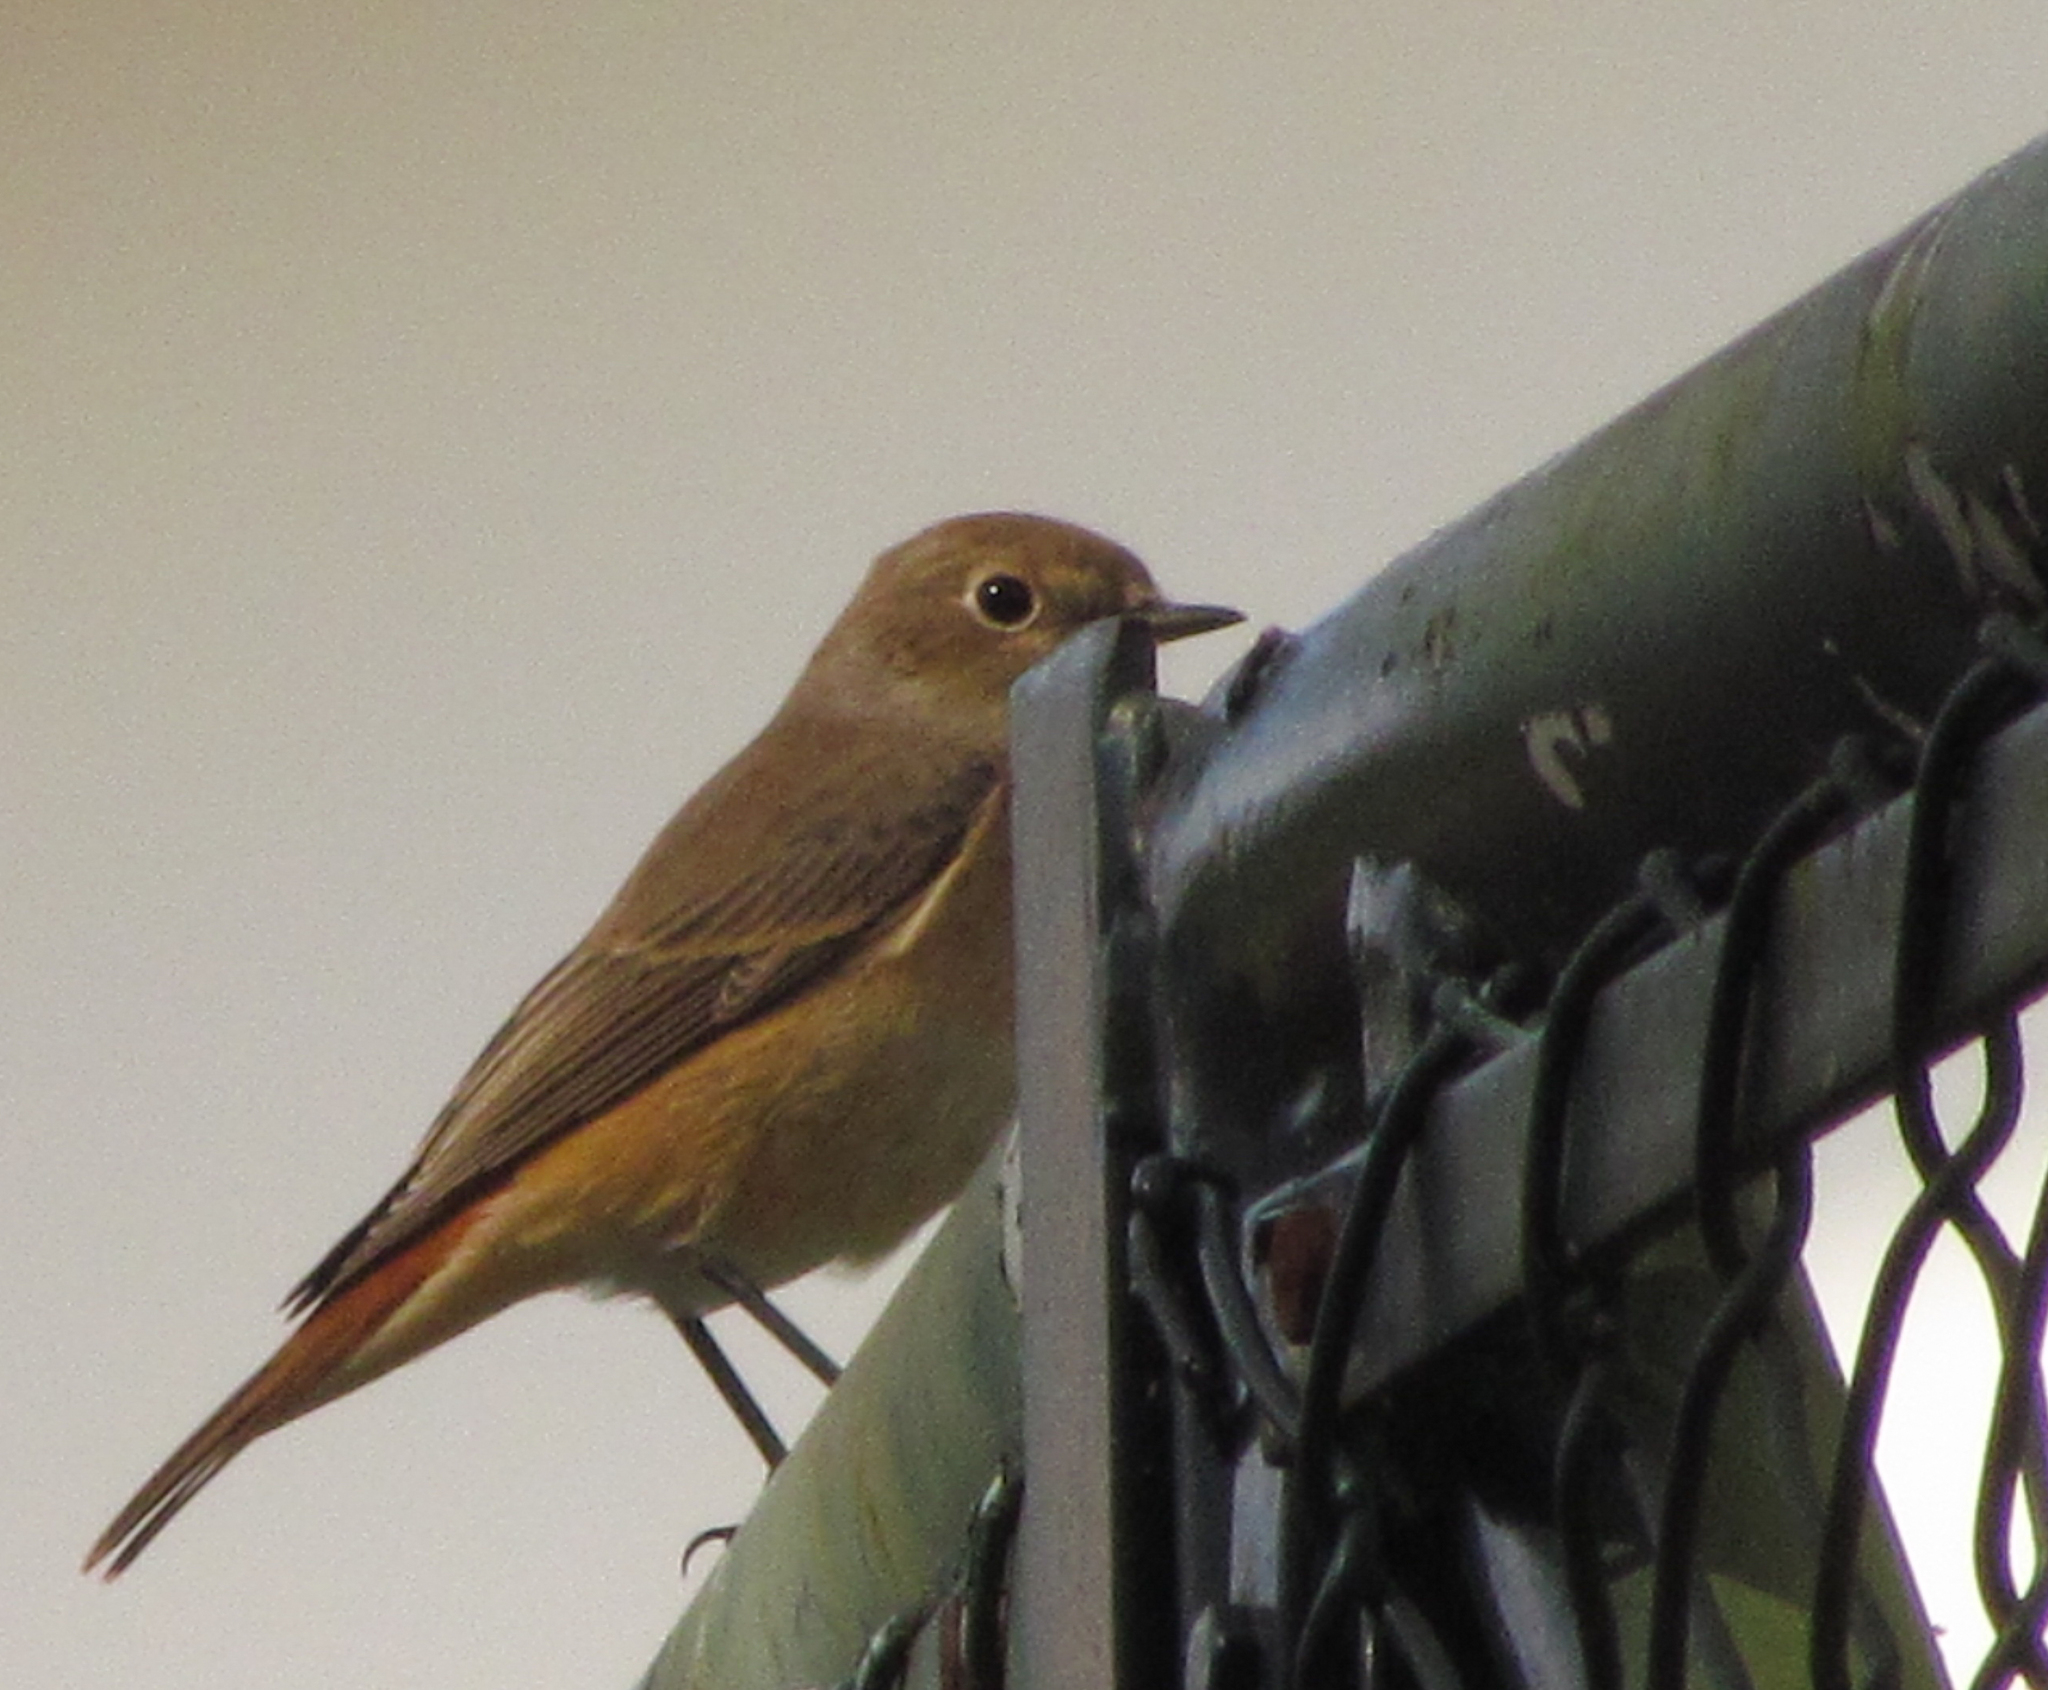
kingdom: Animalia
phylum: Chordata
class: Aves
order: Passeriformes
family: Muscicapidae
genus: Phoenicurus
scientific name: Phoenicurus phoenicurus
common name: Common redstart
